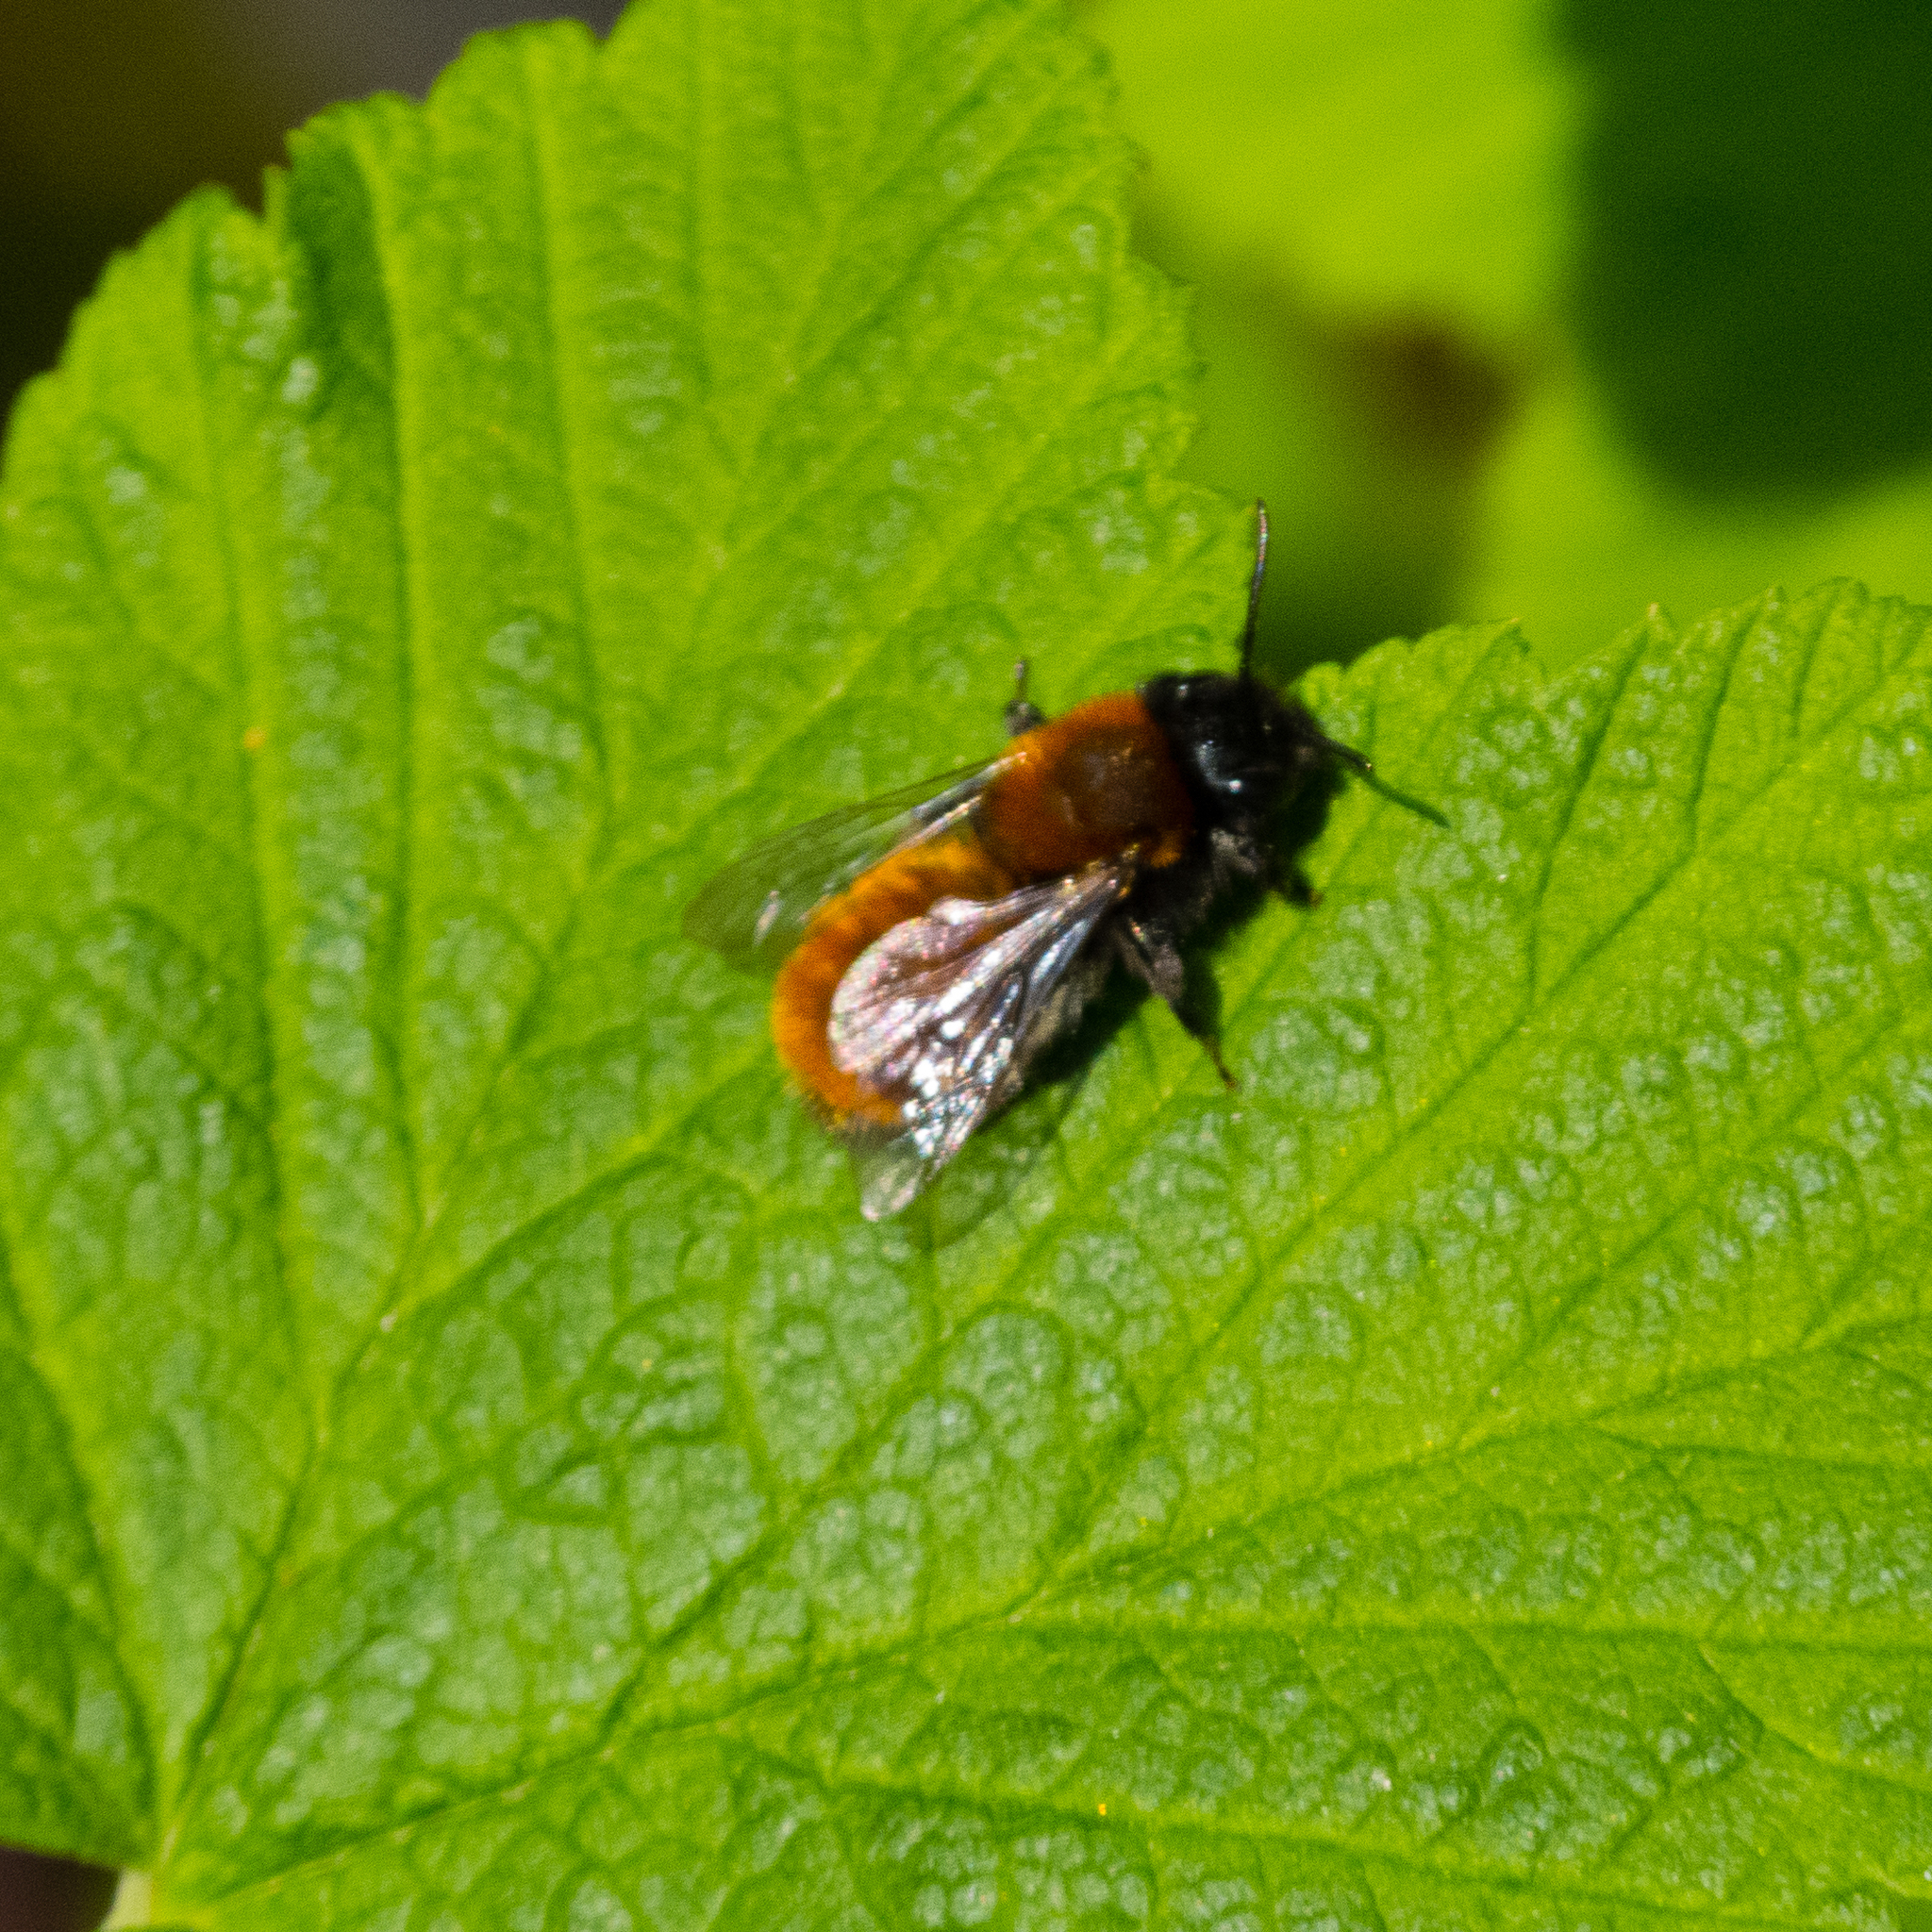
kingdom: Animalia
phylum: Arthropoda
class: Insecta
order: Hymenoptera
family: Andrenidae
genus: Andrena
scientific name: Andrena fulva
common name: Tawny mining bee
